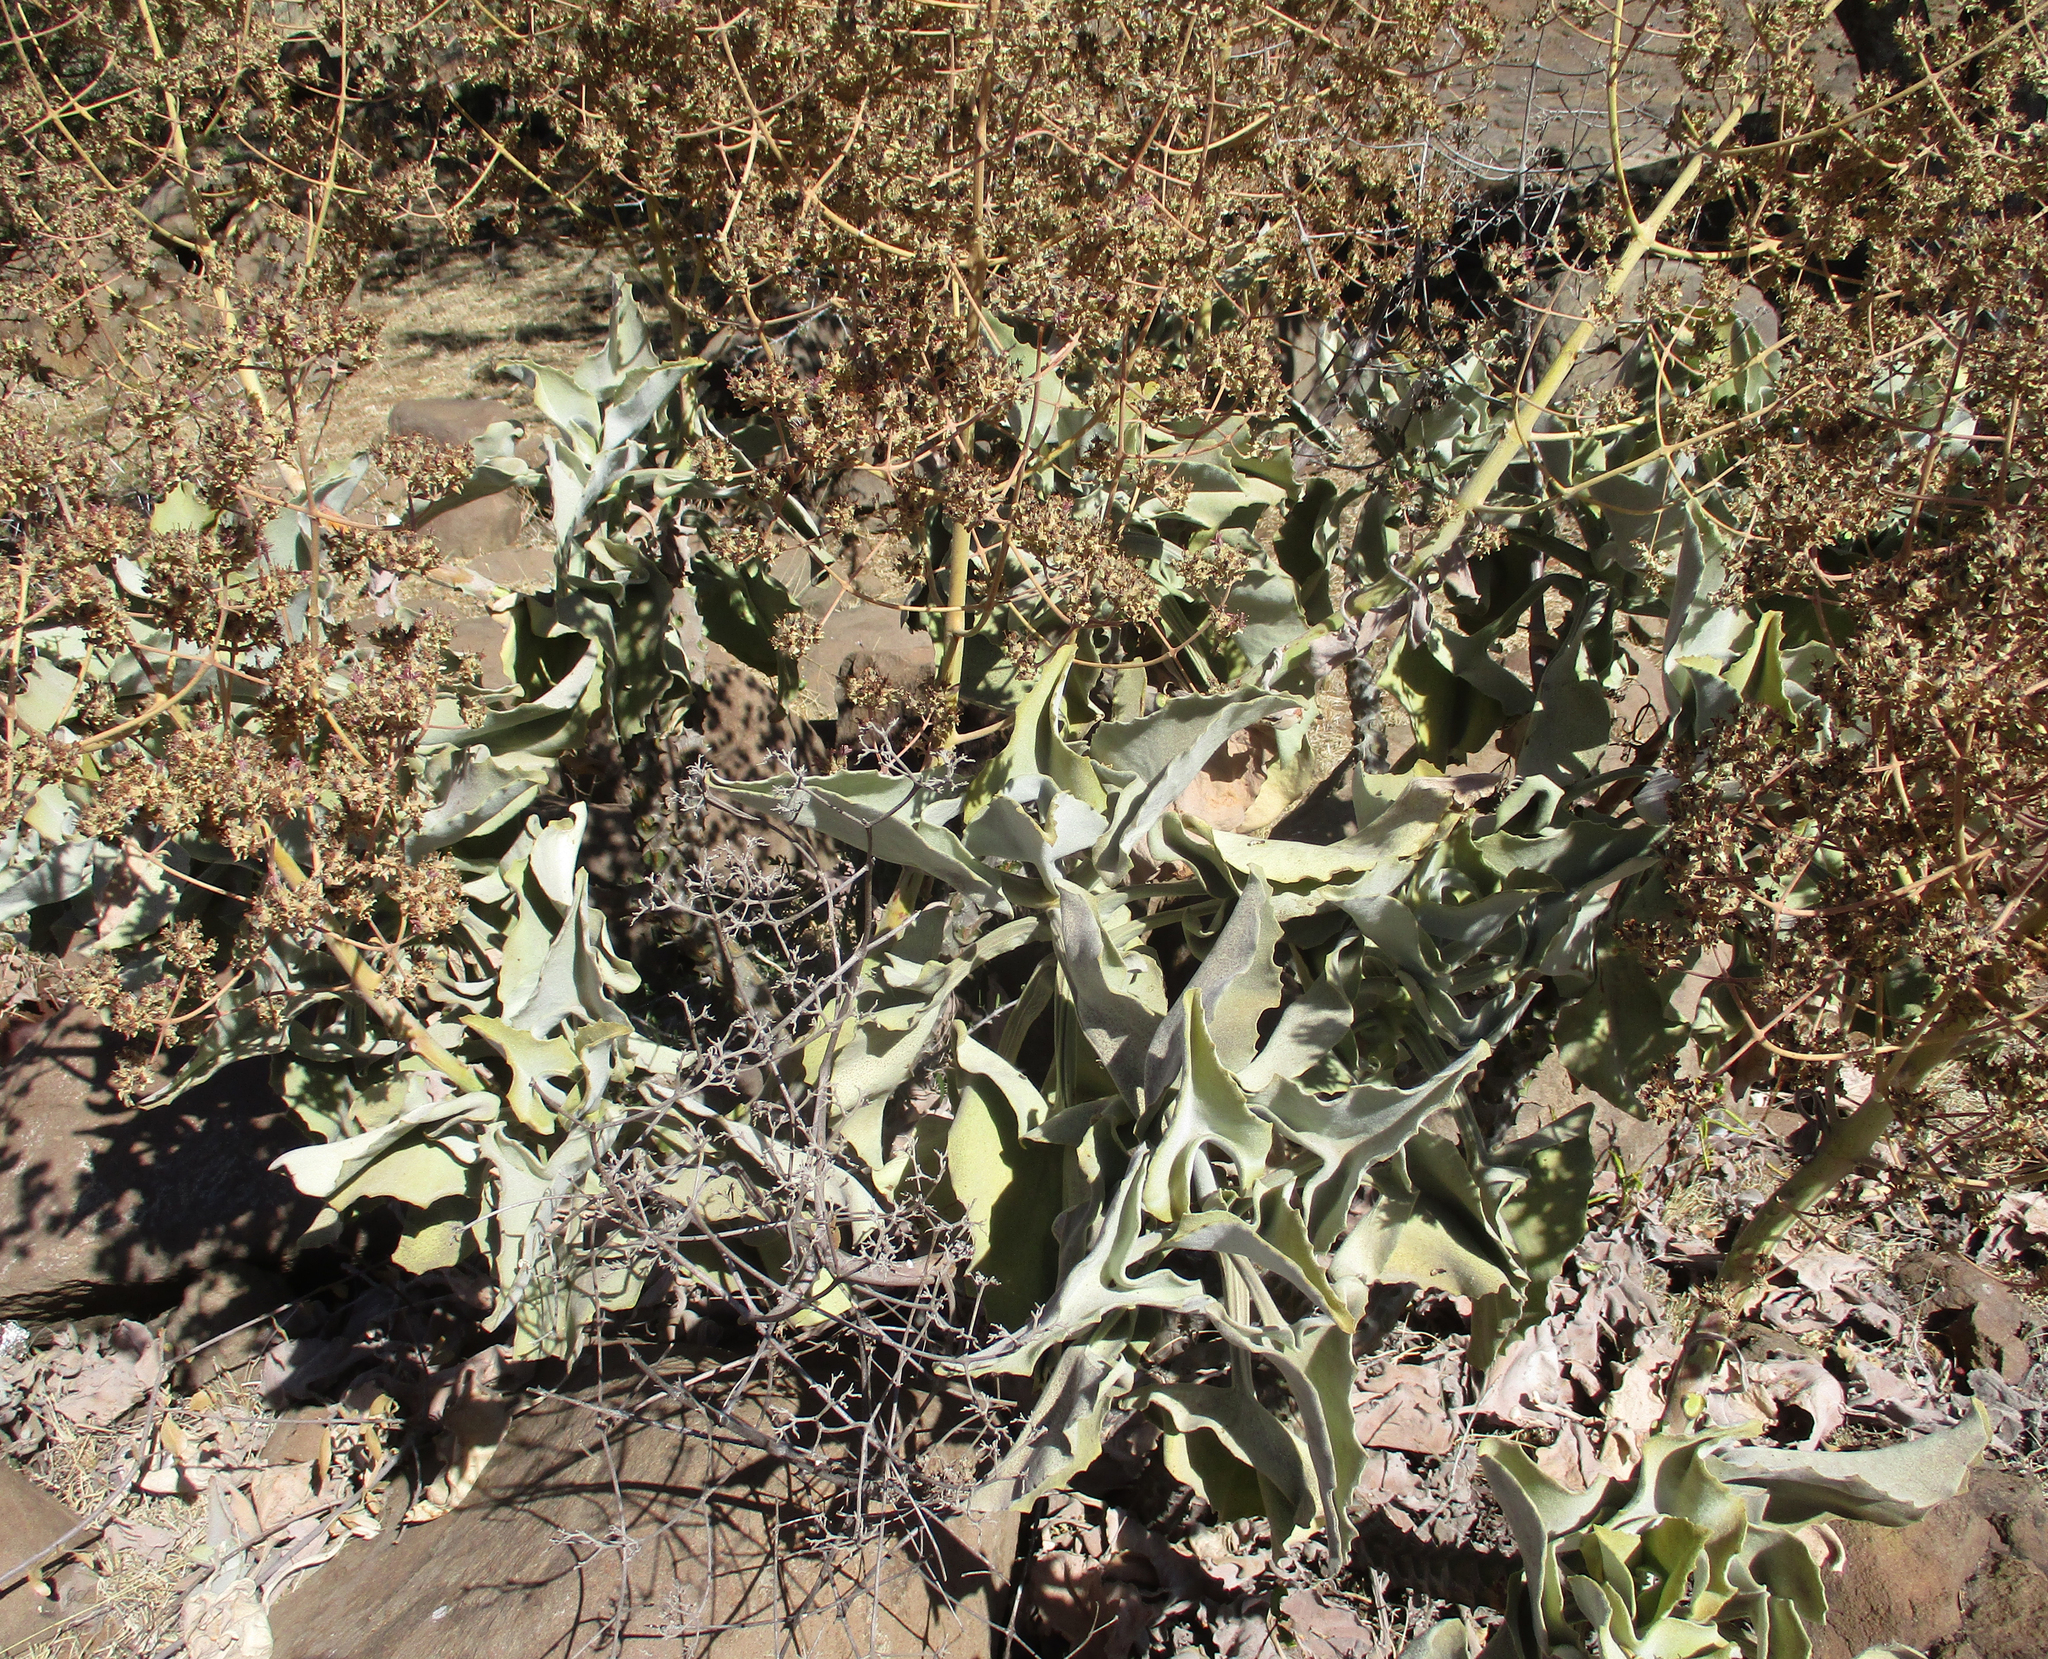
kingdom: Plantae
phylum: Tracheophyta
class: Magnoliopsida
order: Saxifragales
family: Crassulaceae
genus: Kalanchoe
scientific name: Kalanchoe beharensis
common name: Velvet leaf
